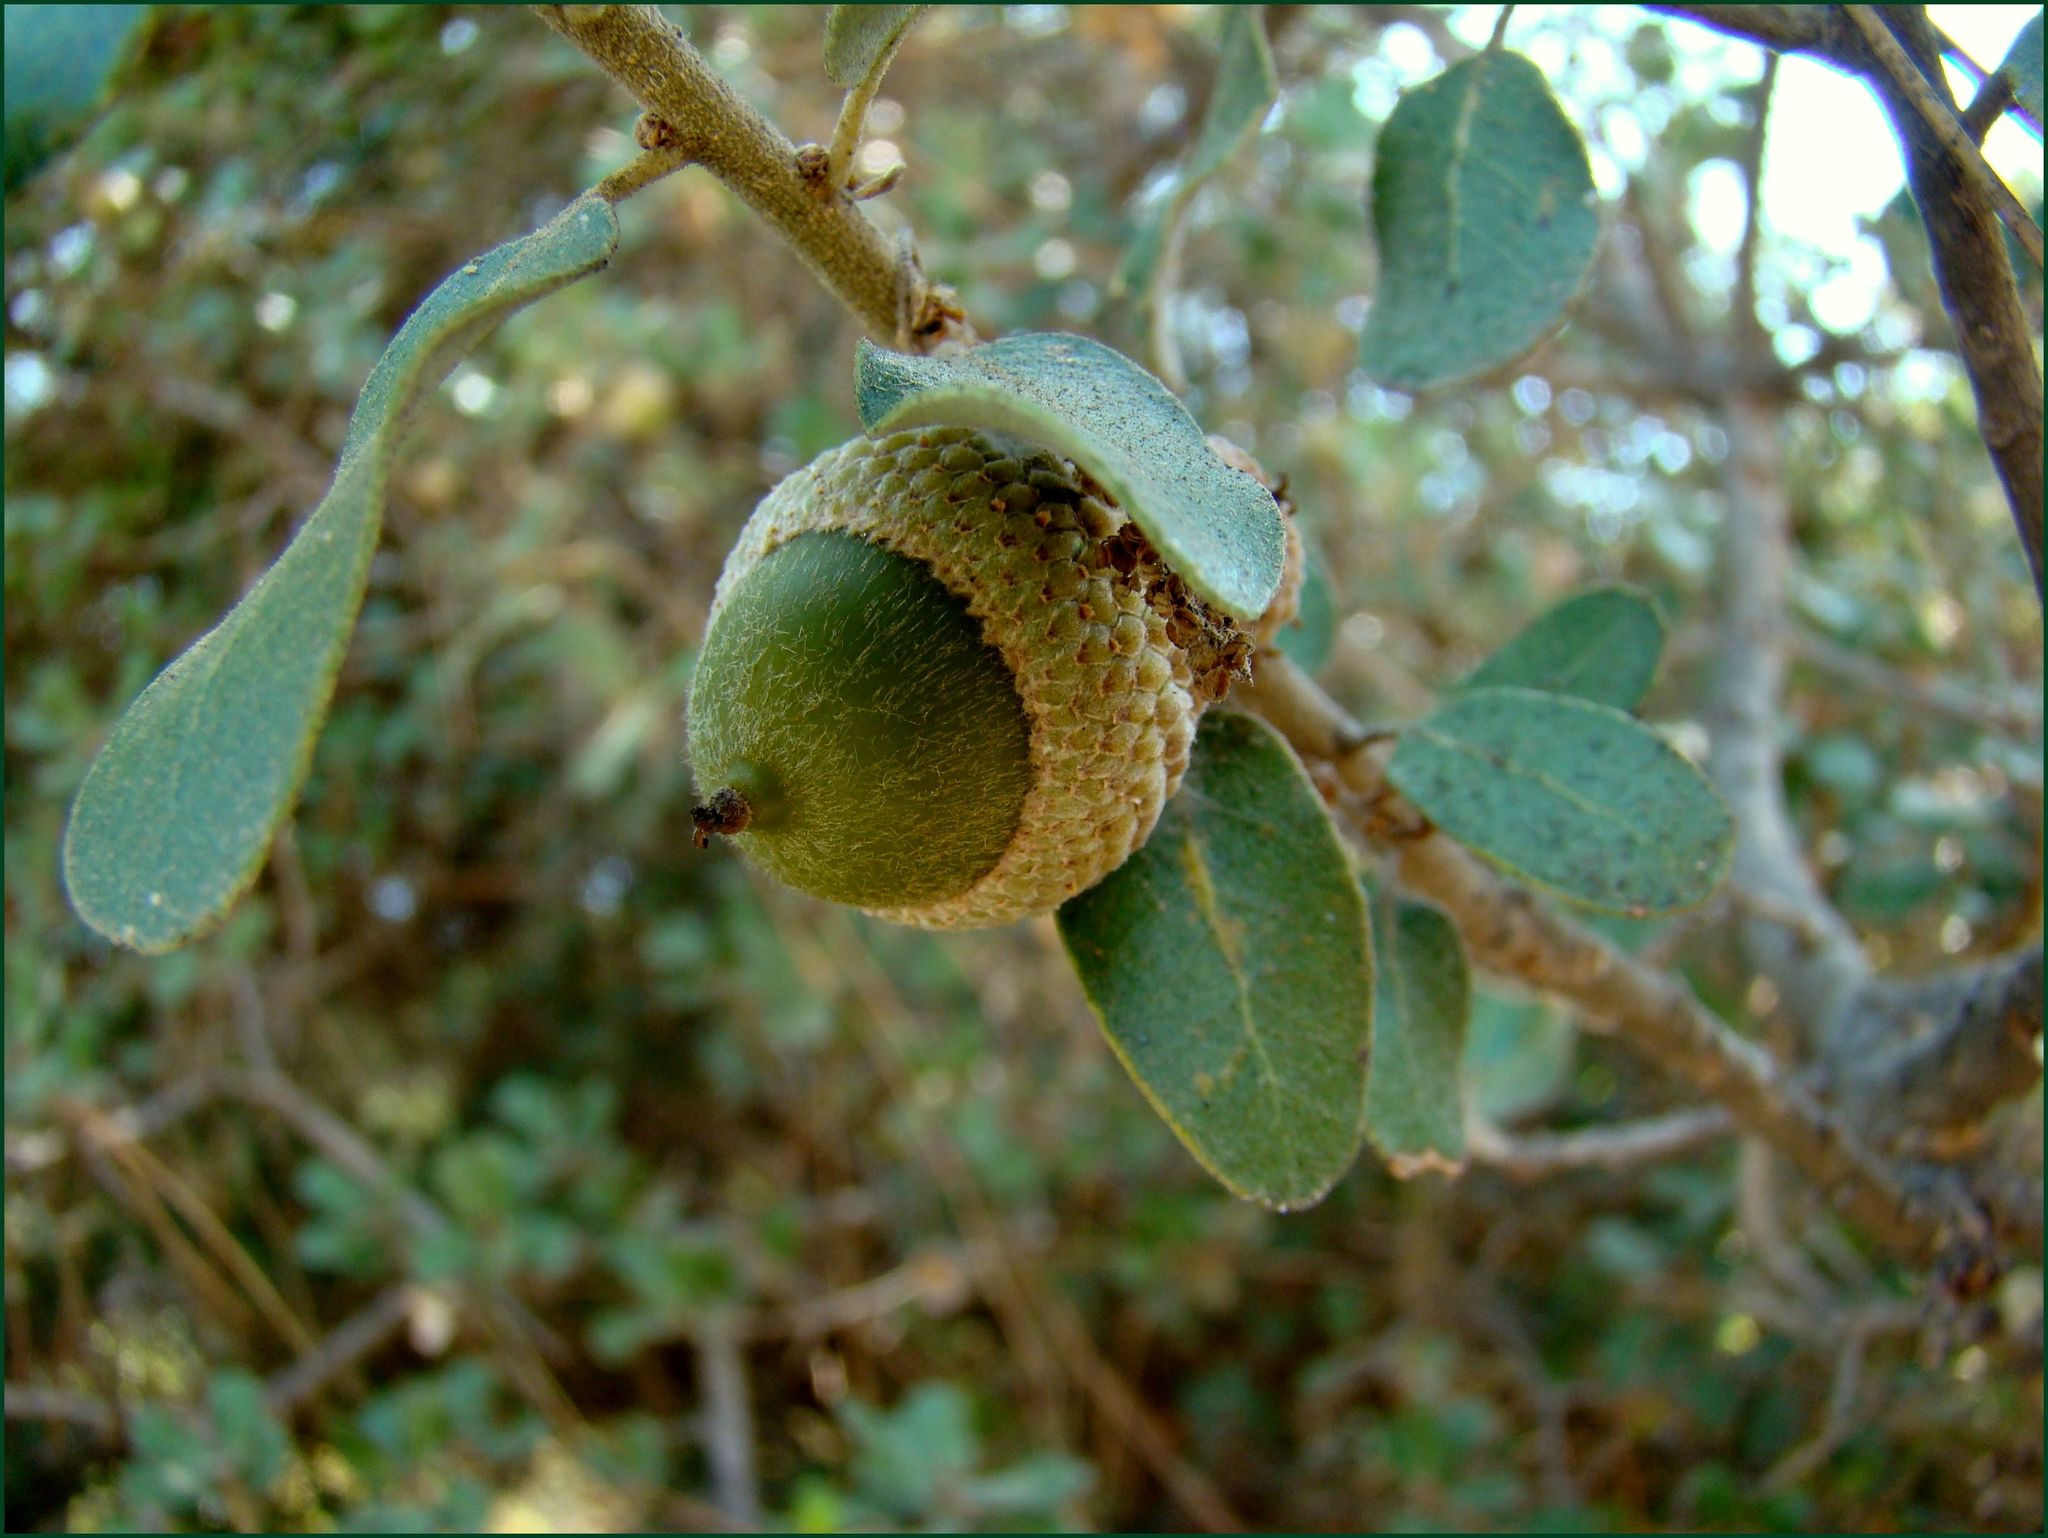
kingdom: Plantae
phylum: Tracheophyta
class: Magnoliopsida
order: Fagales
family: Fagaceae
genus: Quercus
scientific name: Quercus aucheri
